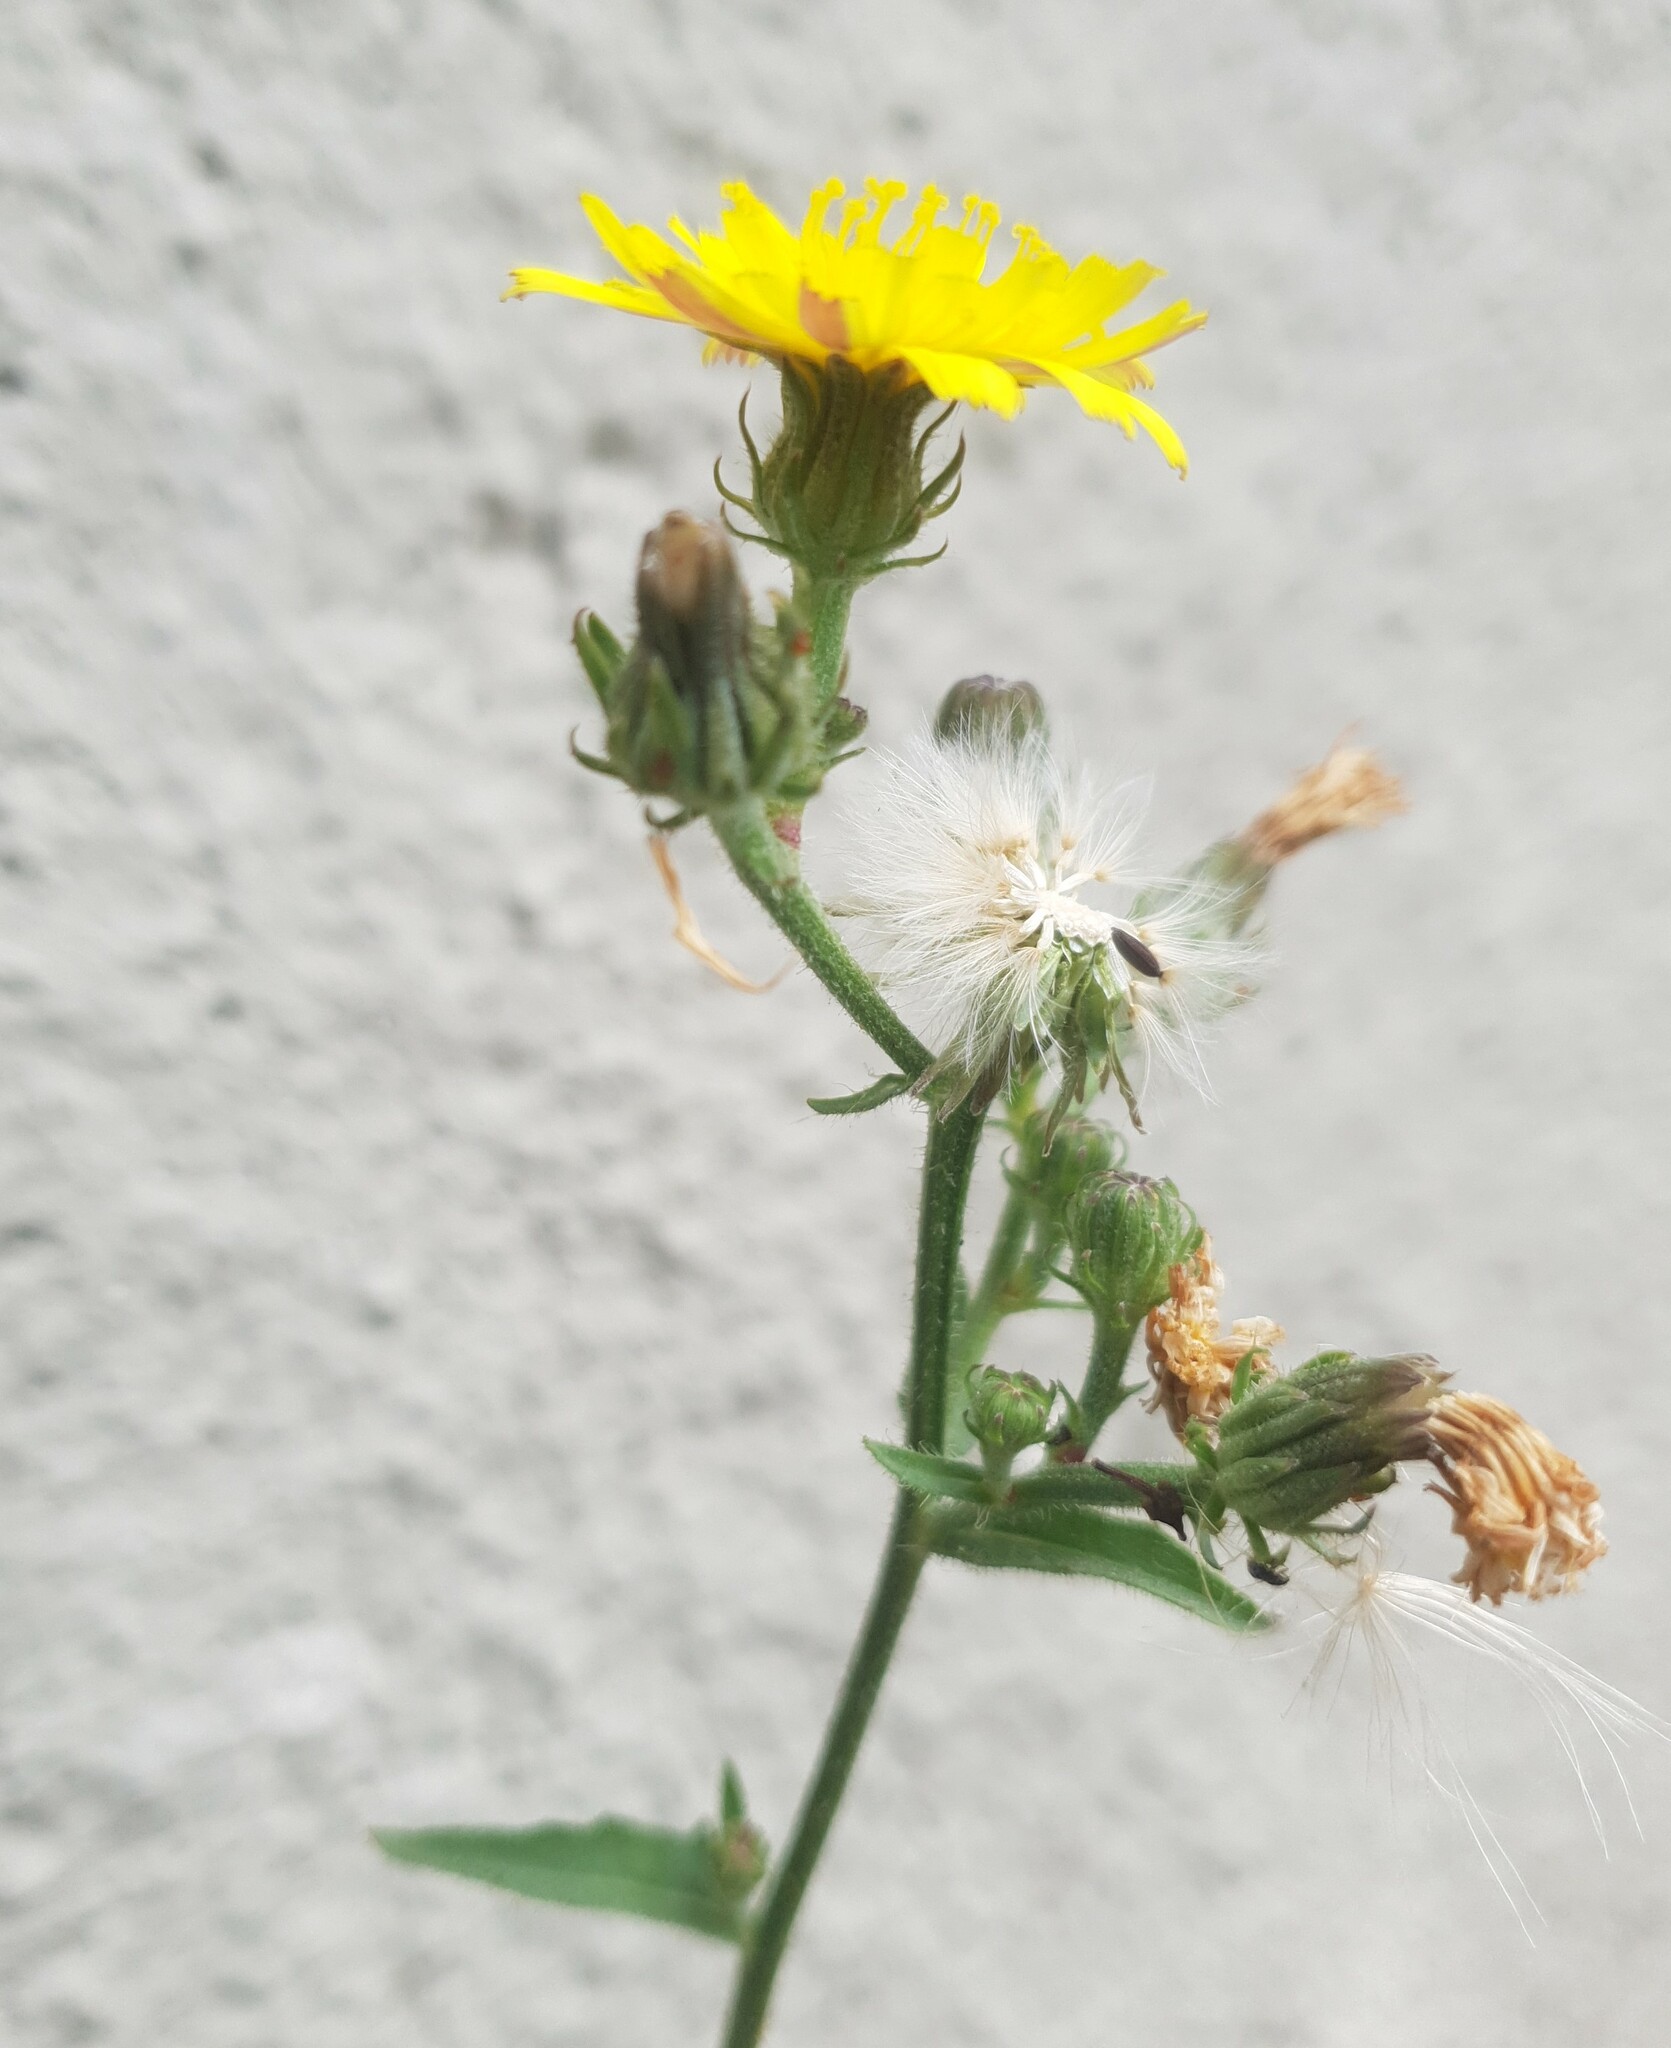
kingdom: Plantae
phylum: Tracheophyta
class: Magnoliopsida
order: Asterales
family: Asteraceae
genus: Picris
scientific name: Picris hieracioides
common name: Hawkweed oxtongue
